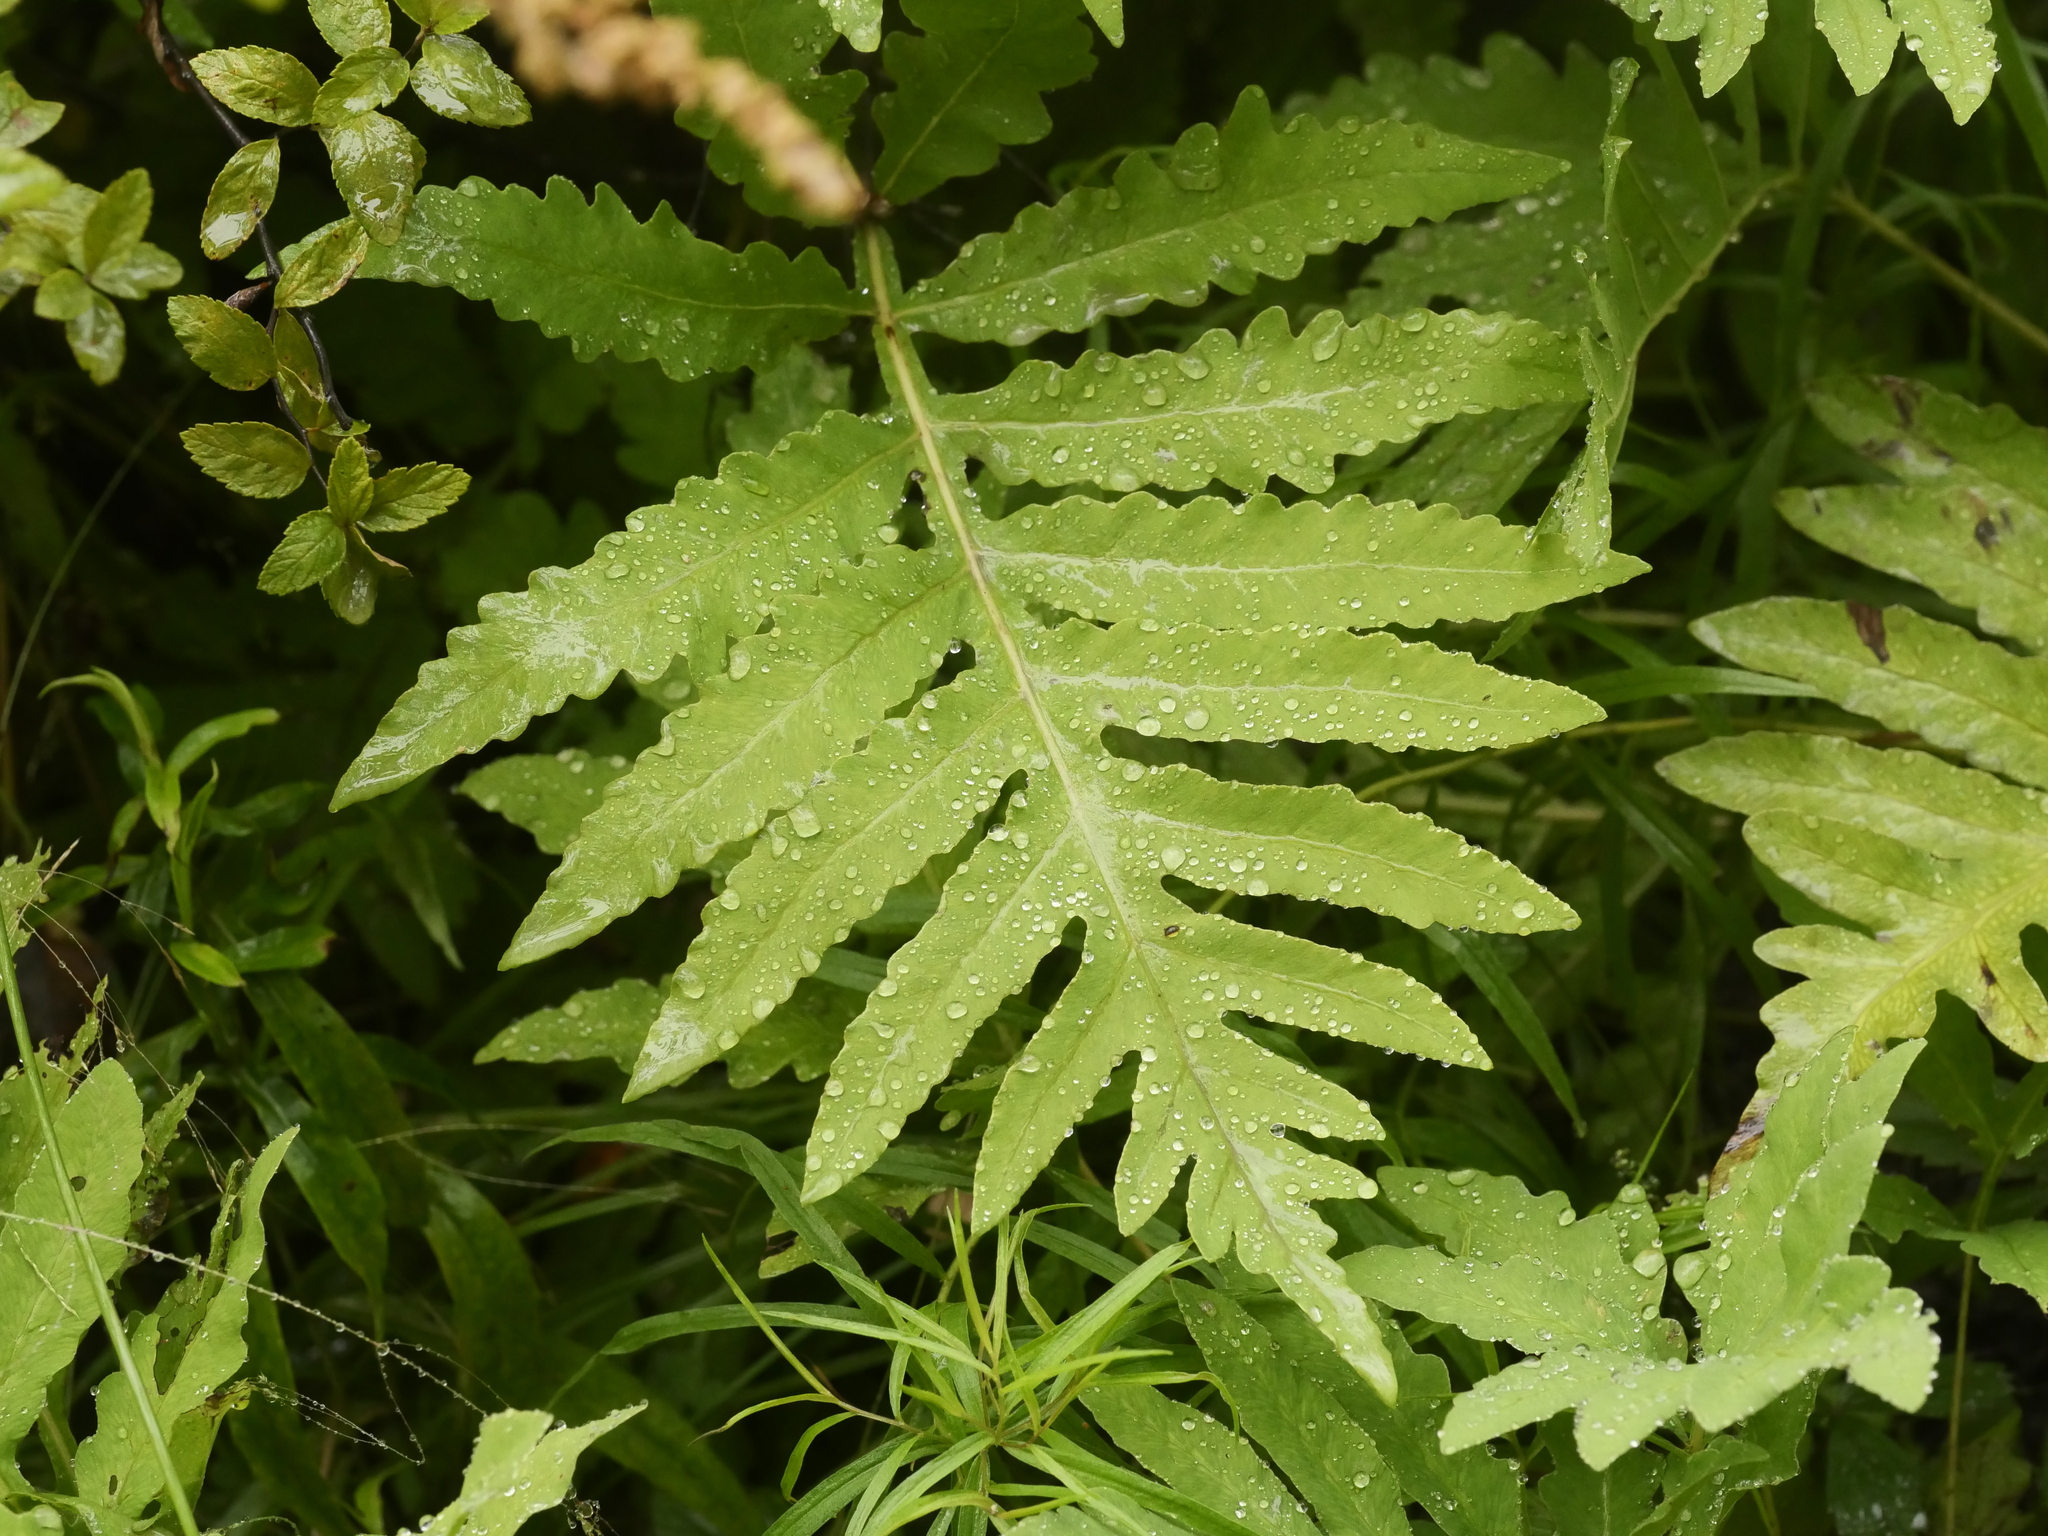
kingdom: Plantae
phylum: Tracheophyta
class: Polypodiopsida
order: Polypodiales
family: Onocleaceae
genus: Onoclea
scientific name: Onoclea sensibilis
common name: Sensitive fern
